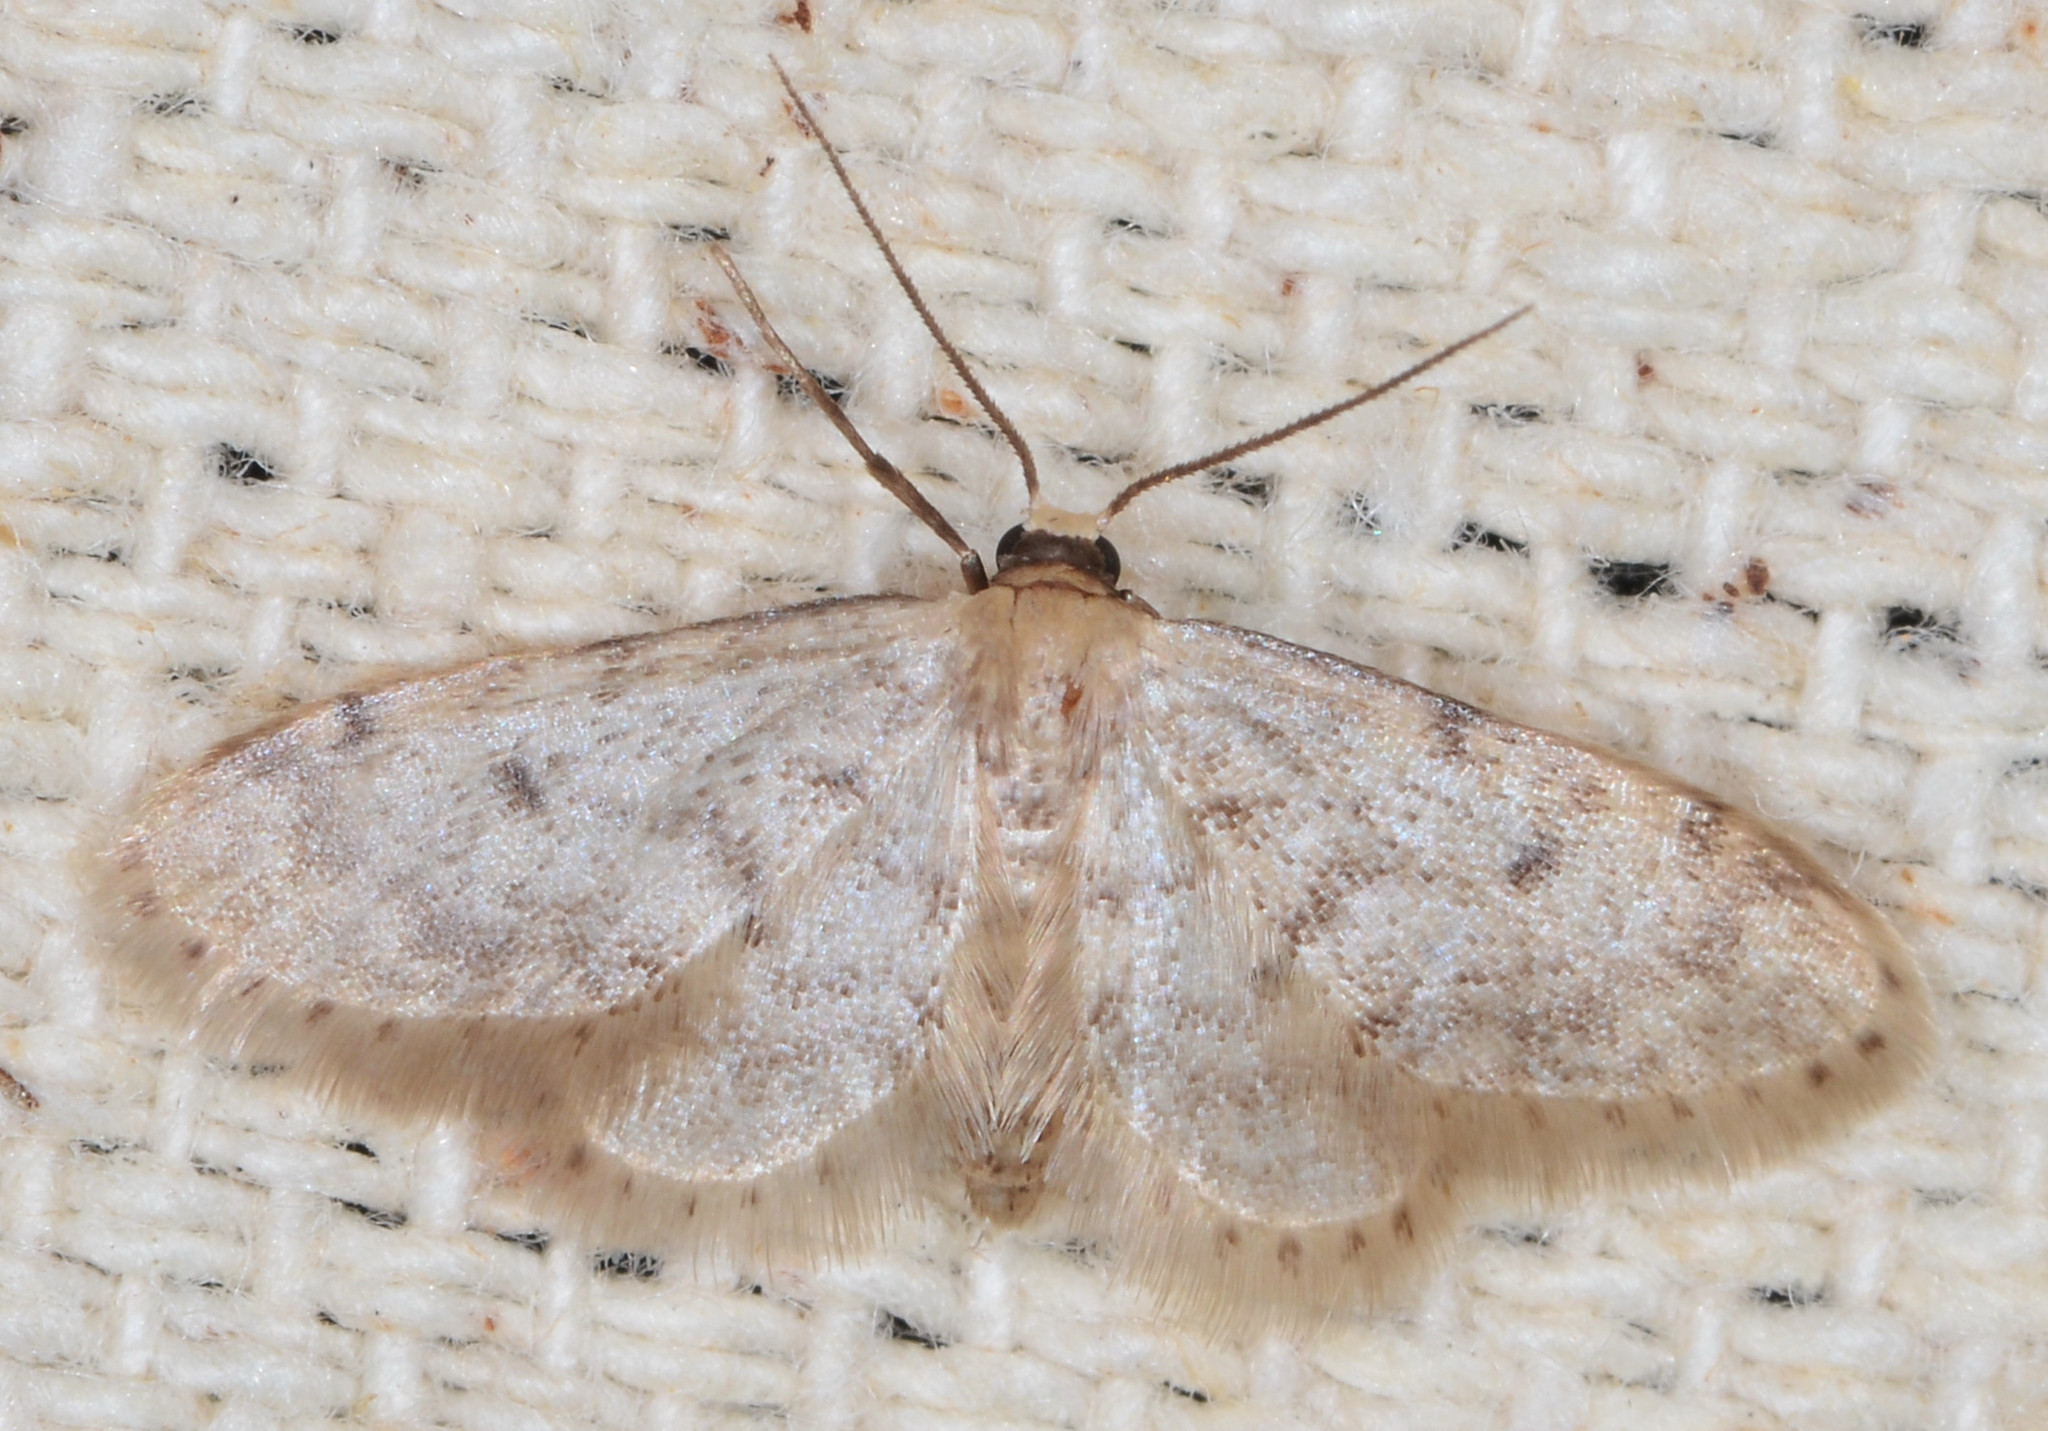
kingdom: Animalia
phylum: Arthropoda
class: Insecta
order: Lepidoptera
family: Geometridae
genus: Idaea
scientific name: Idaea bonifata
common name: Fortunate wave
